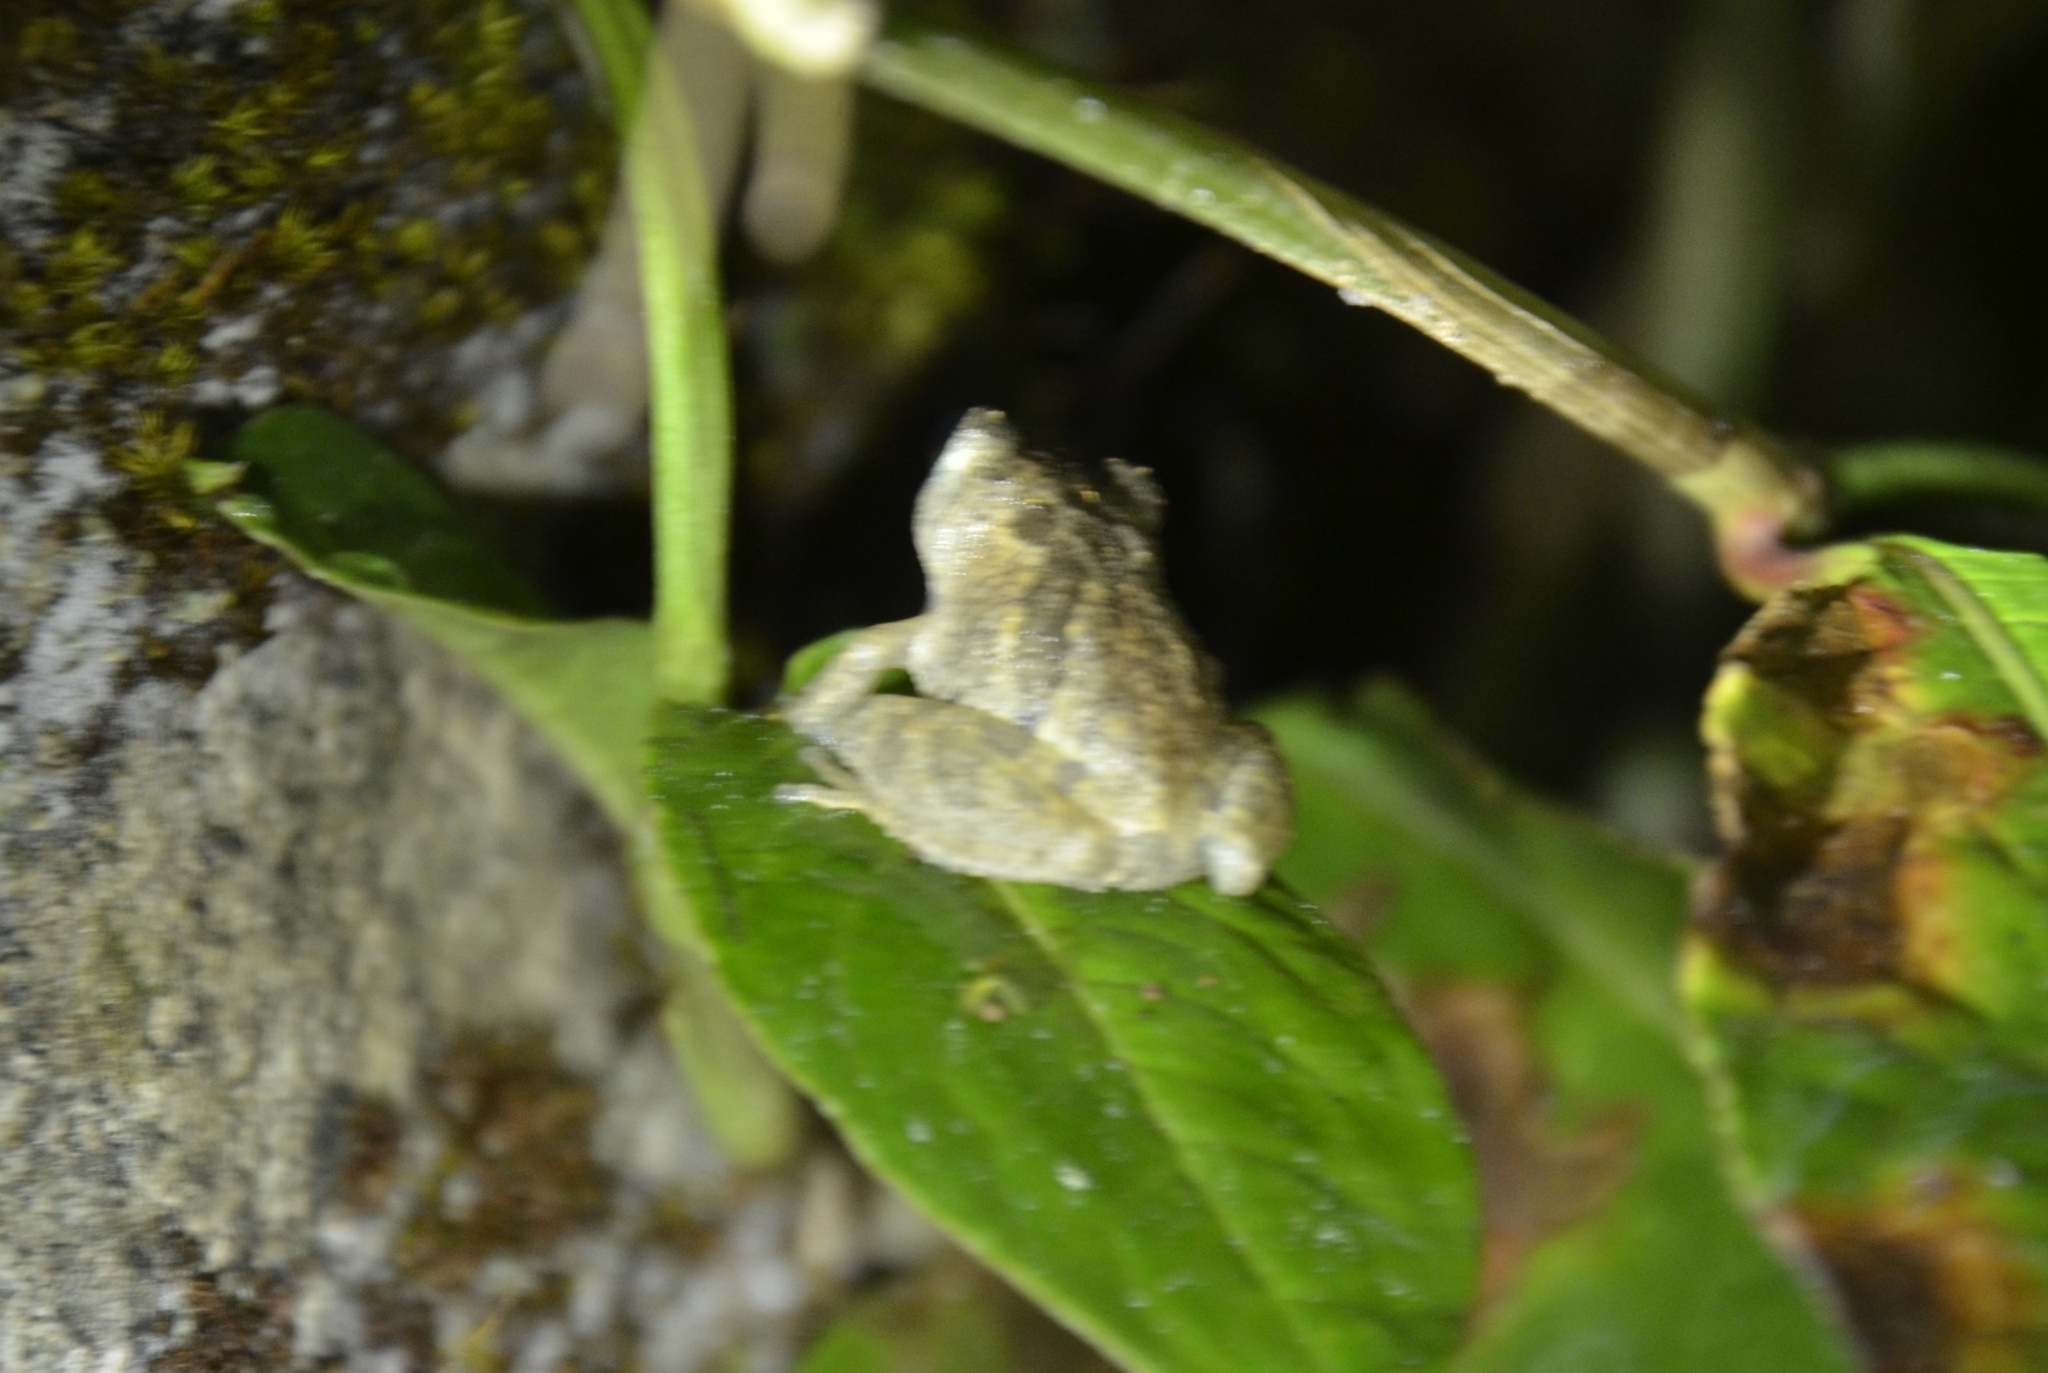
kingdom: Animalia
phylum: Chordata
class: Amphibia
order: Anura
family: Rhacophoridae
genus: Raorchestes
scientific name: Raorchestes blandus
